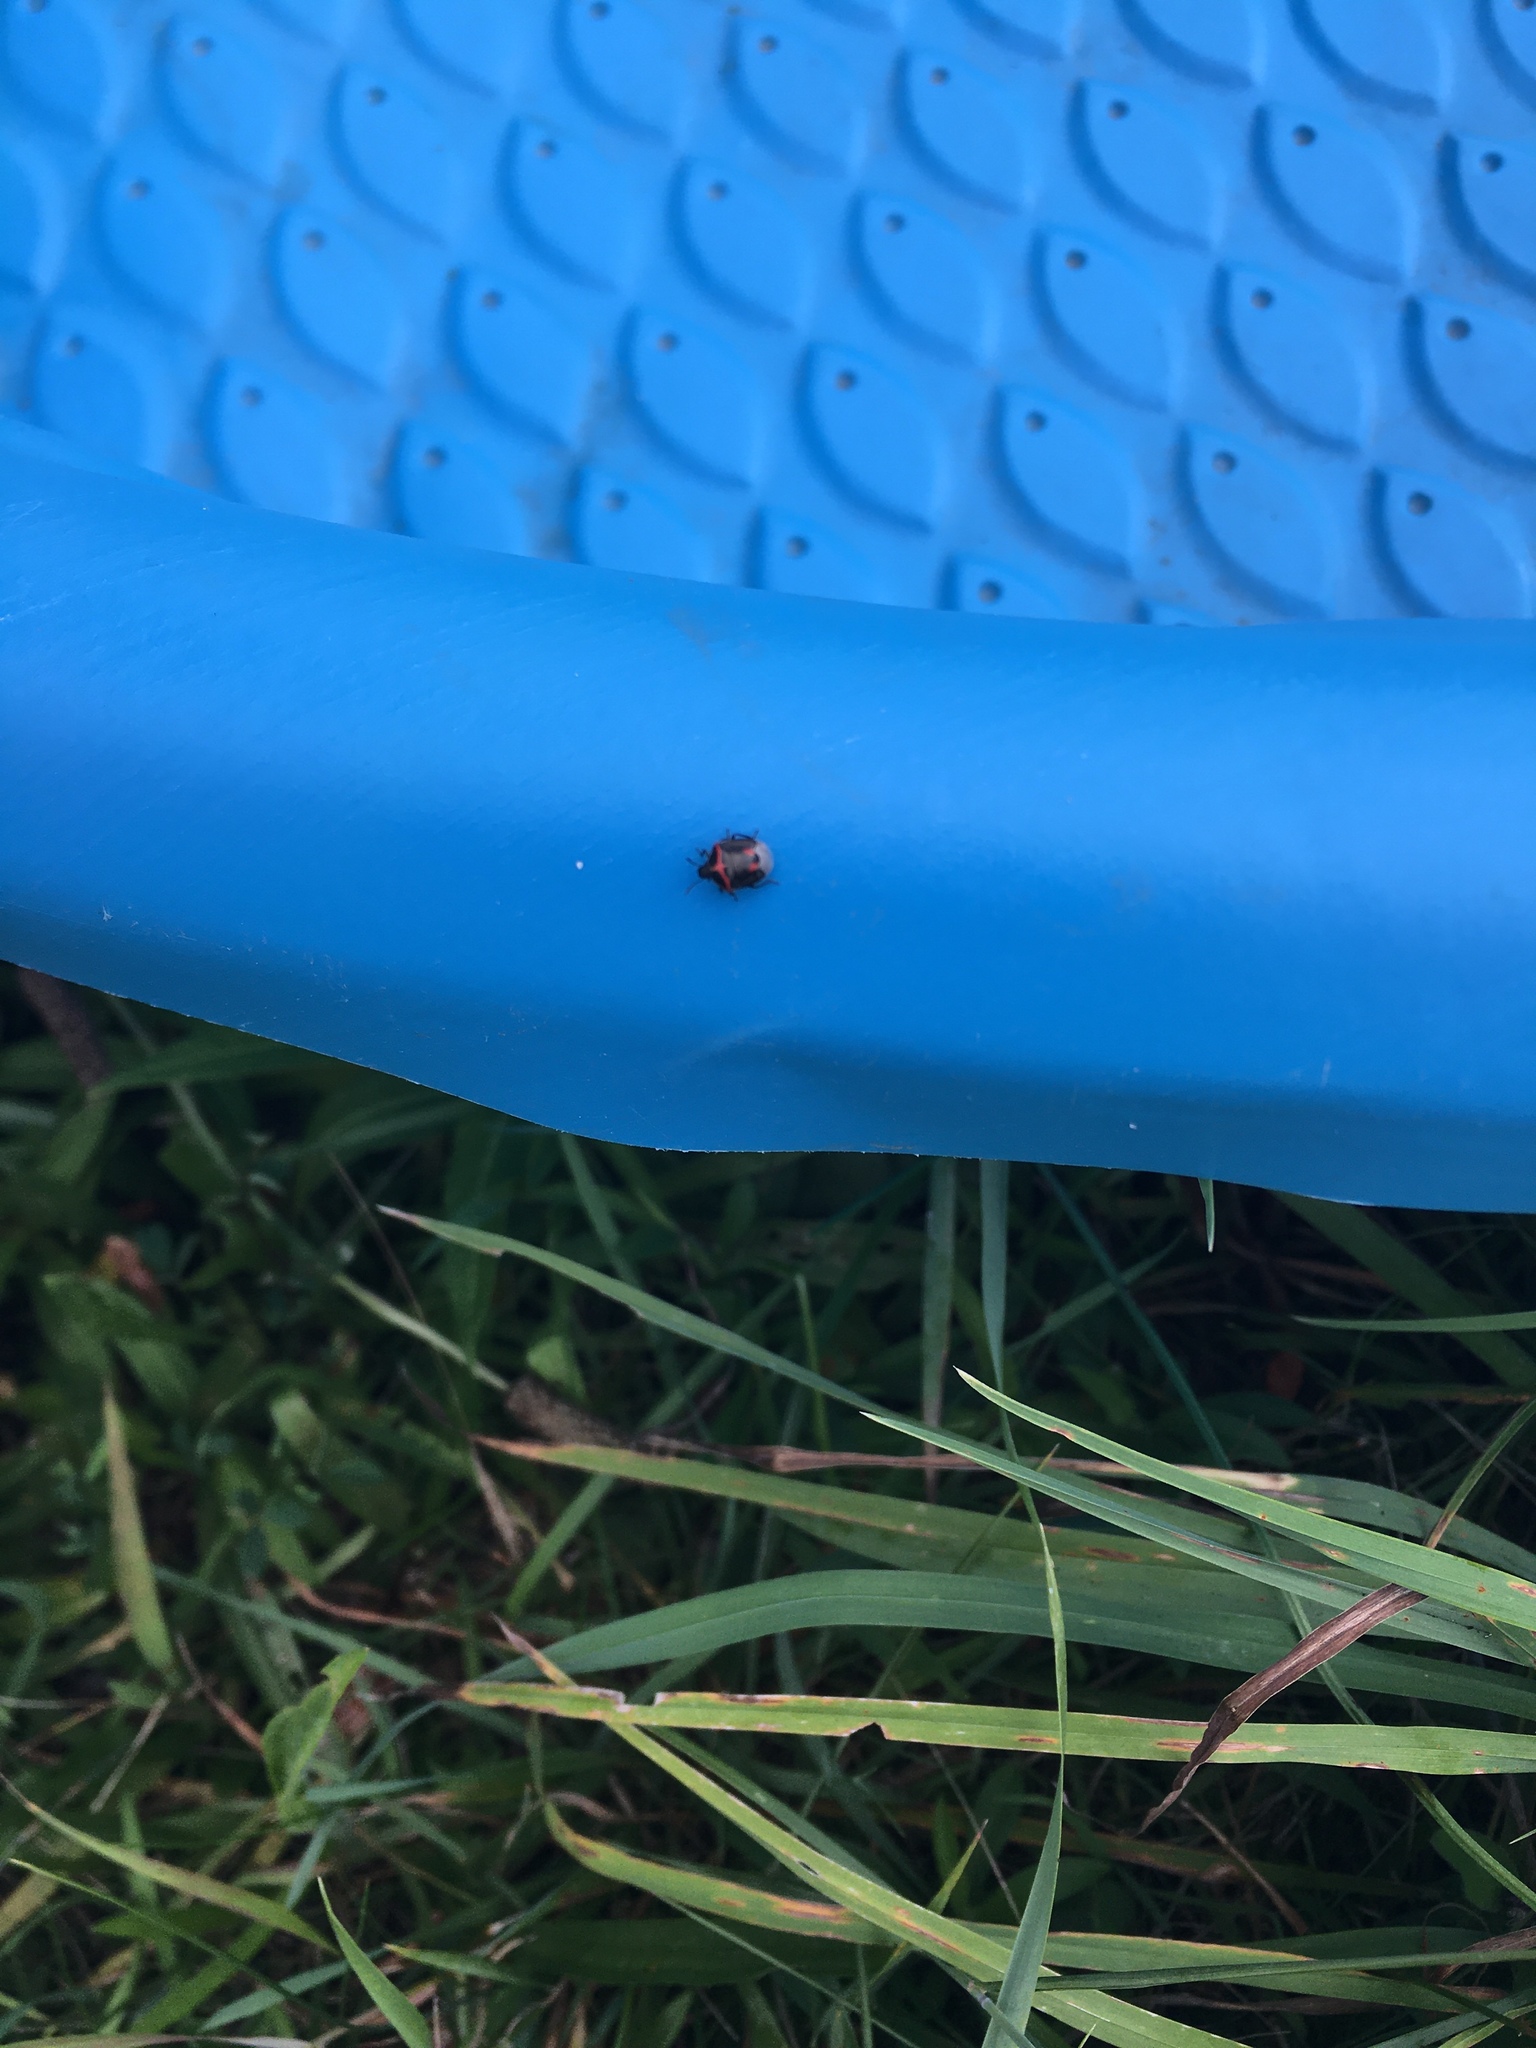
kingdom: Animalia
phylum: Arthropoda
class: Insecta
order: Hemiptera
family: Pentatomidae
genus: Cosmopepla
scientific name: Cosmopepla lintneriana
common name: Twice-stabbed stink bug
